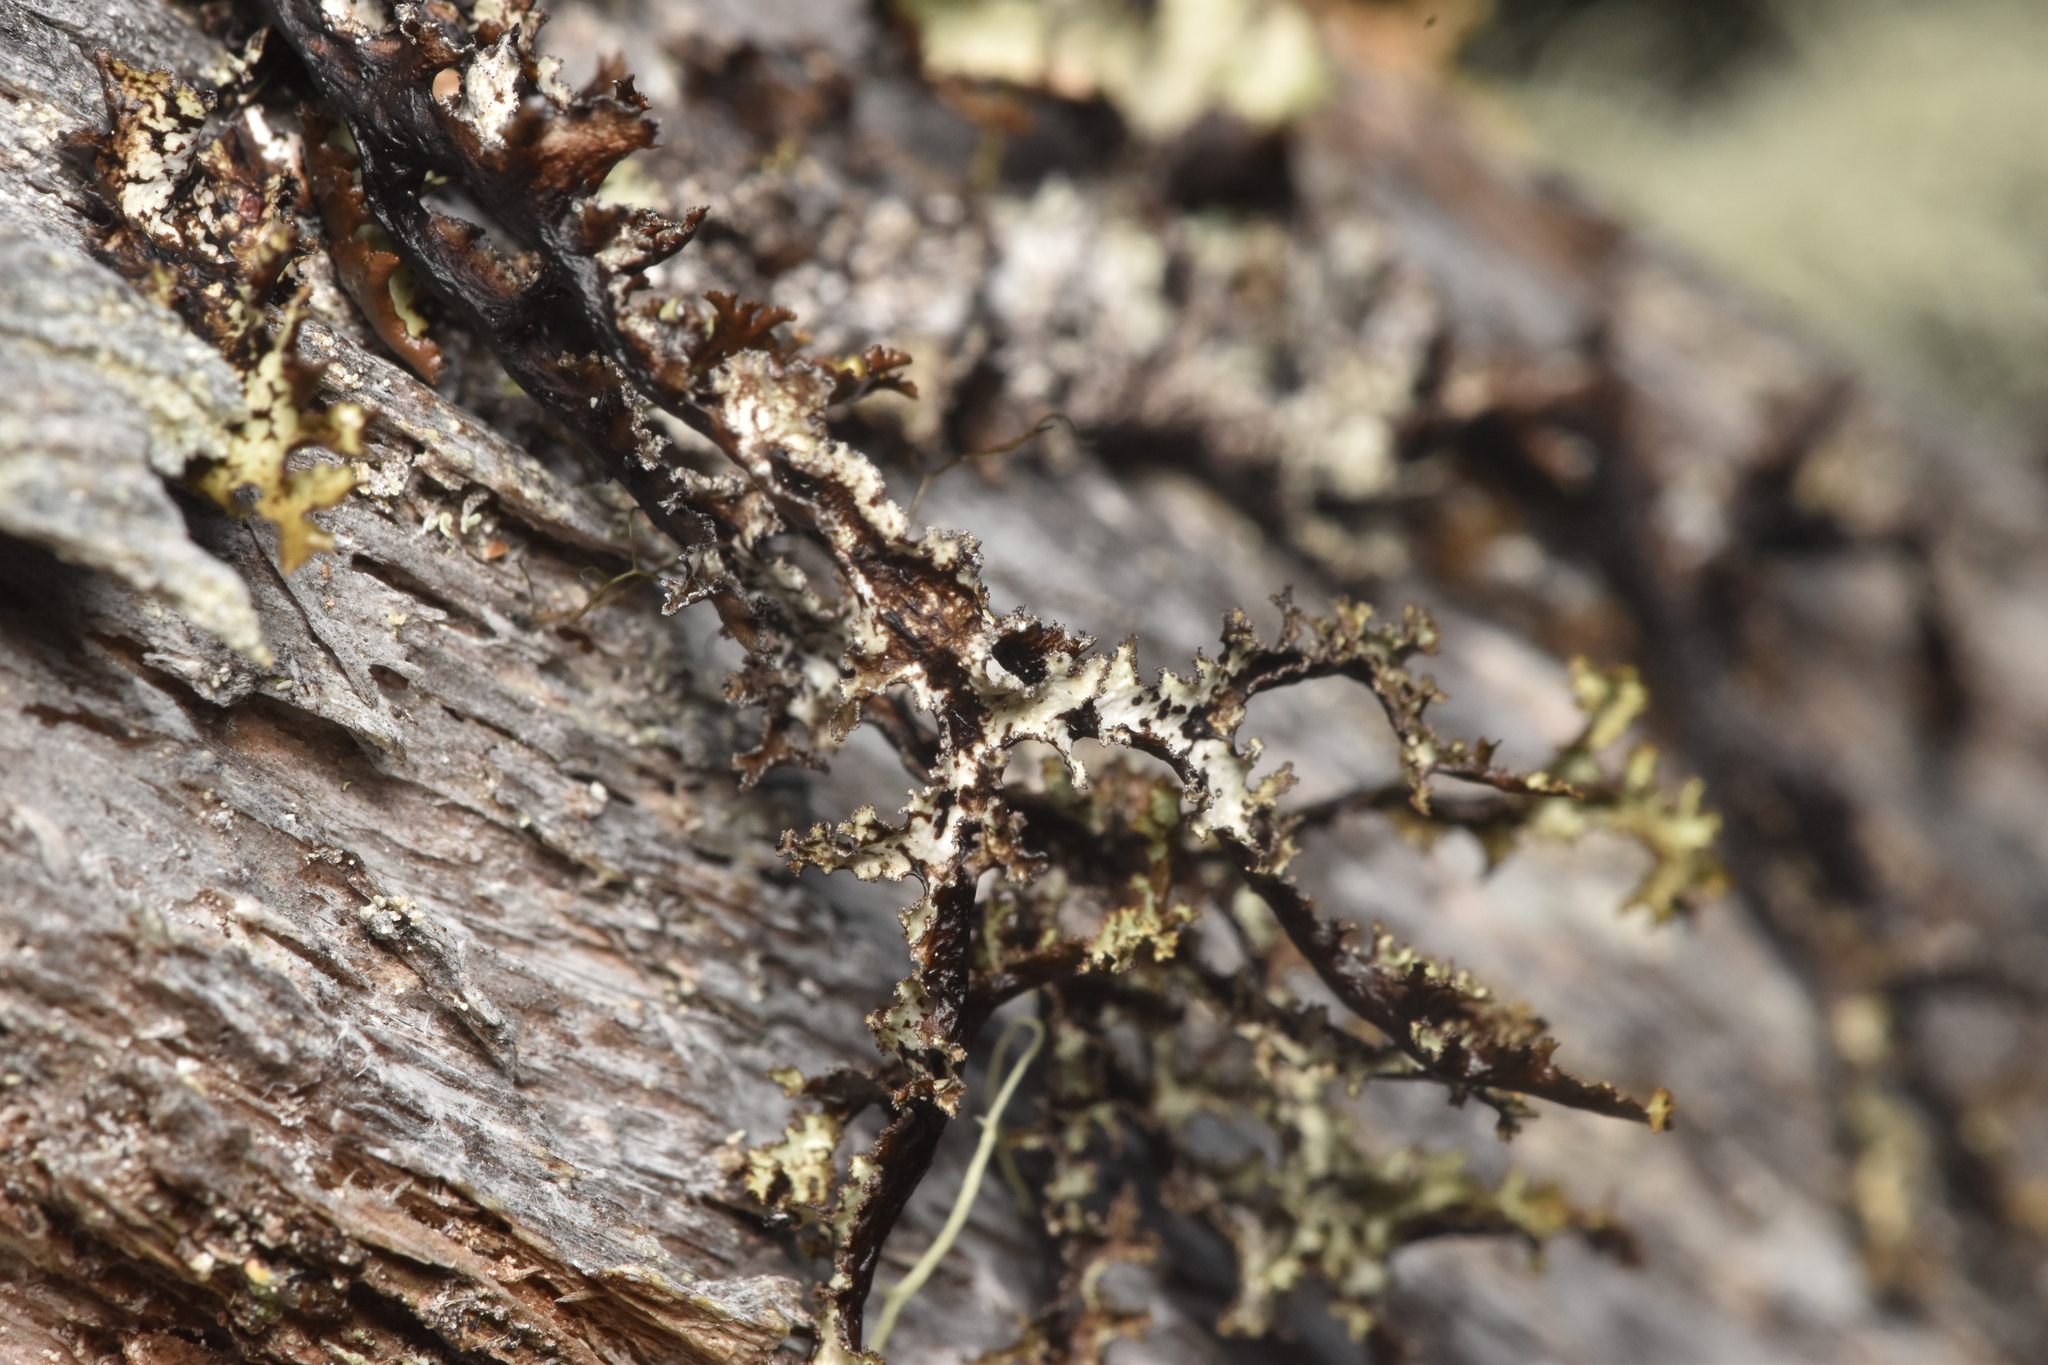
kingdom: Fungi
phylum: Ascomycota
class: Lecanoromycetes
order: Lecanorales
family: Parmeliaceae
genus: Platismatia
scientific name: Platismatia herrei
